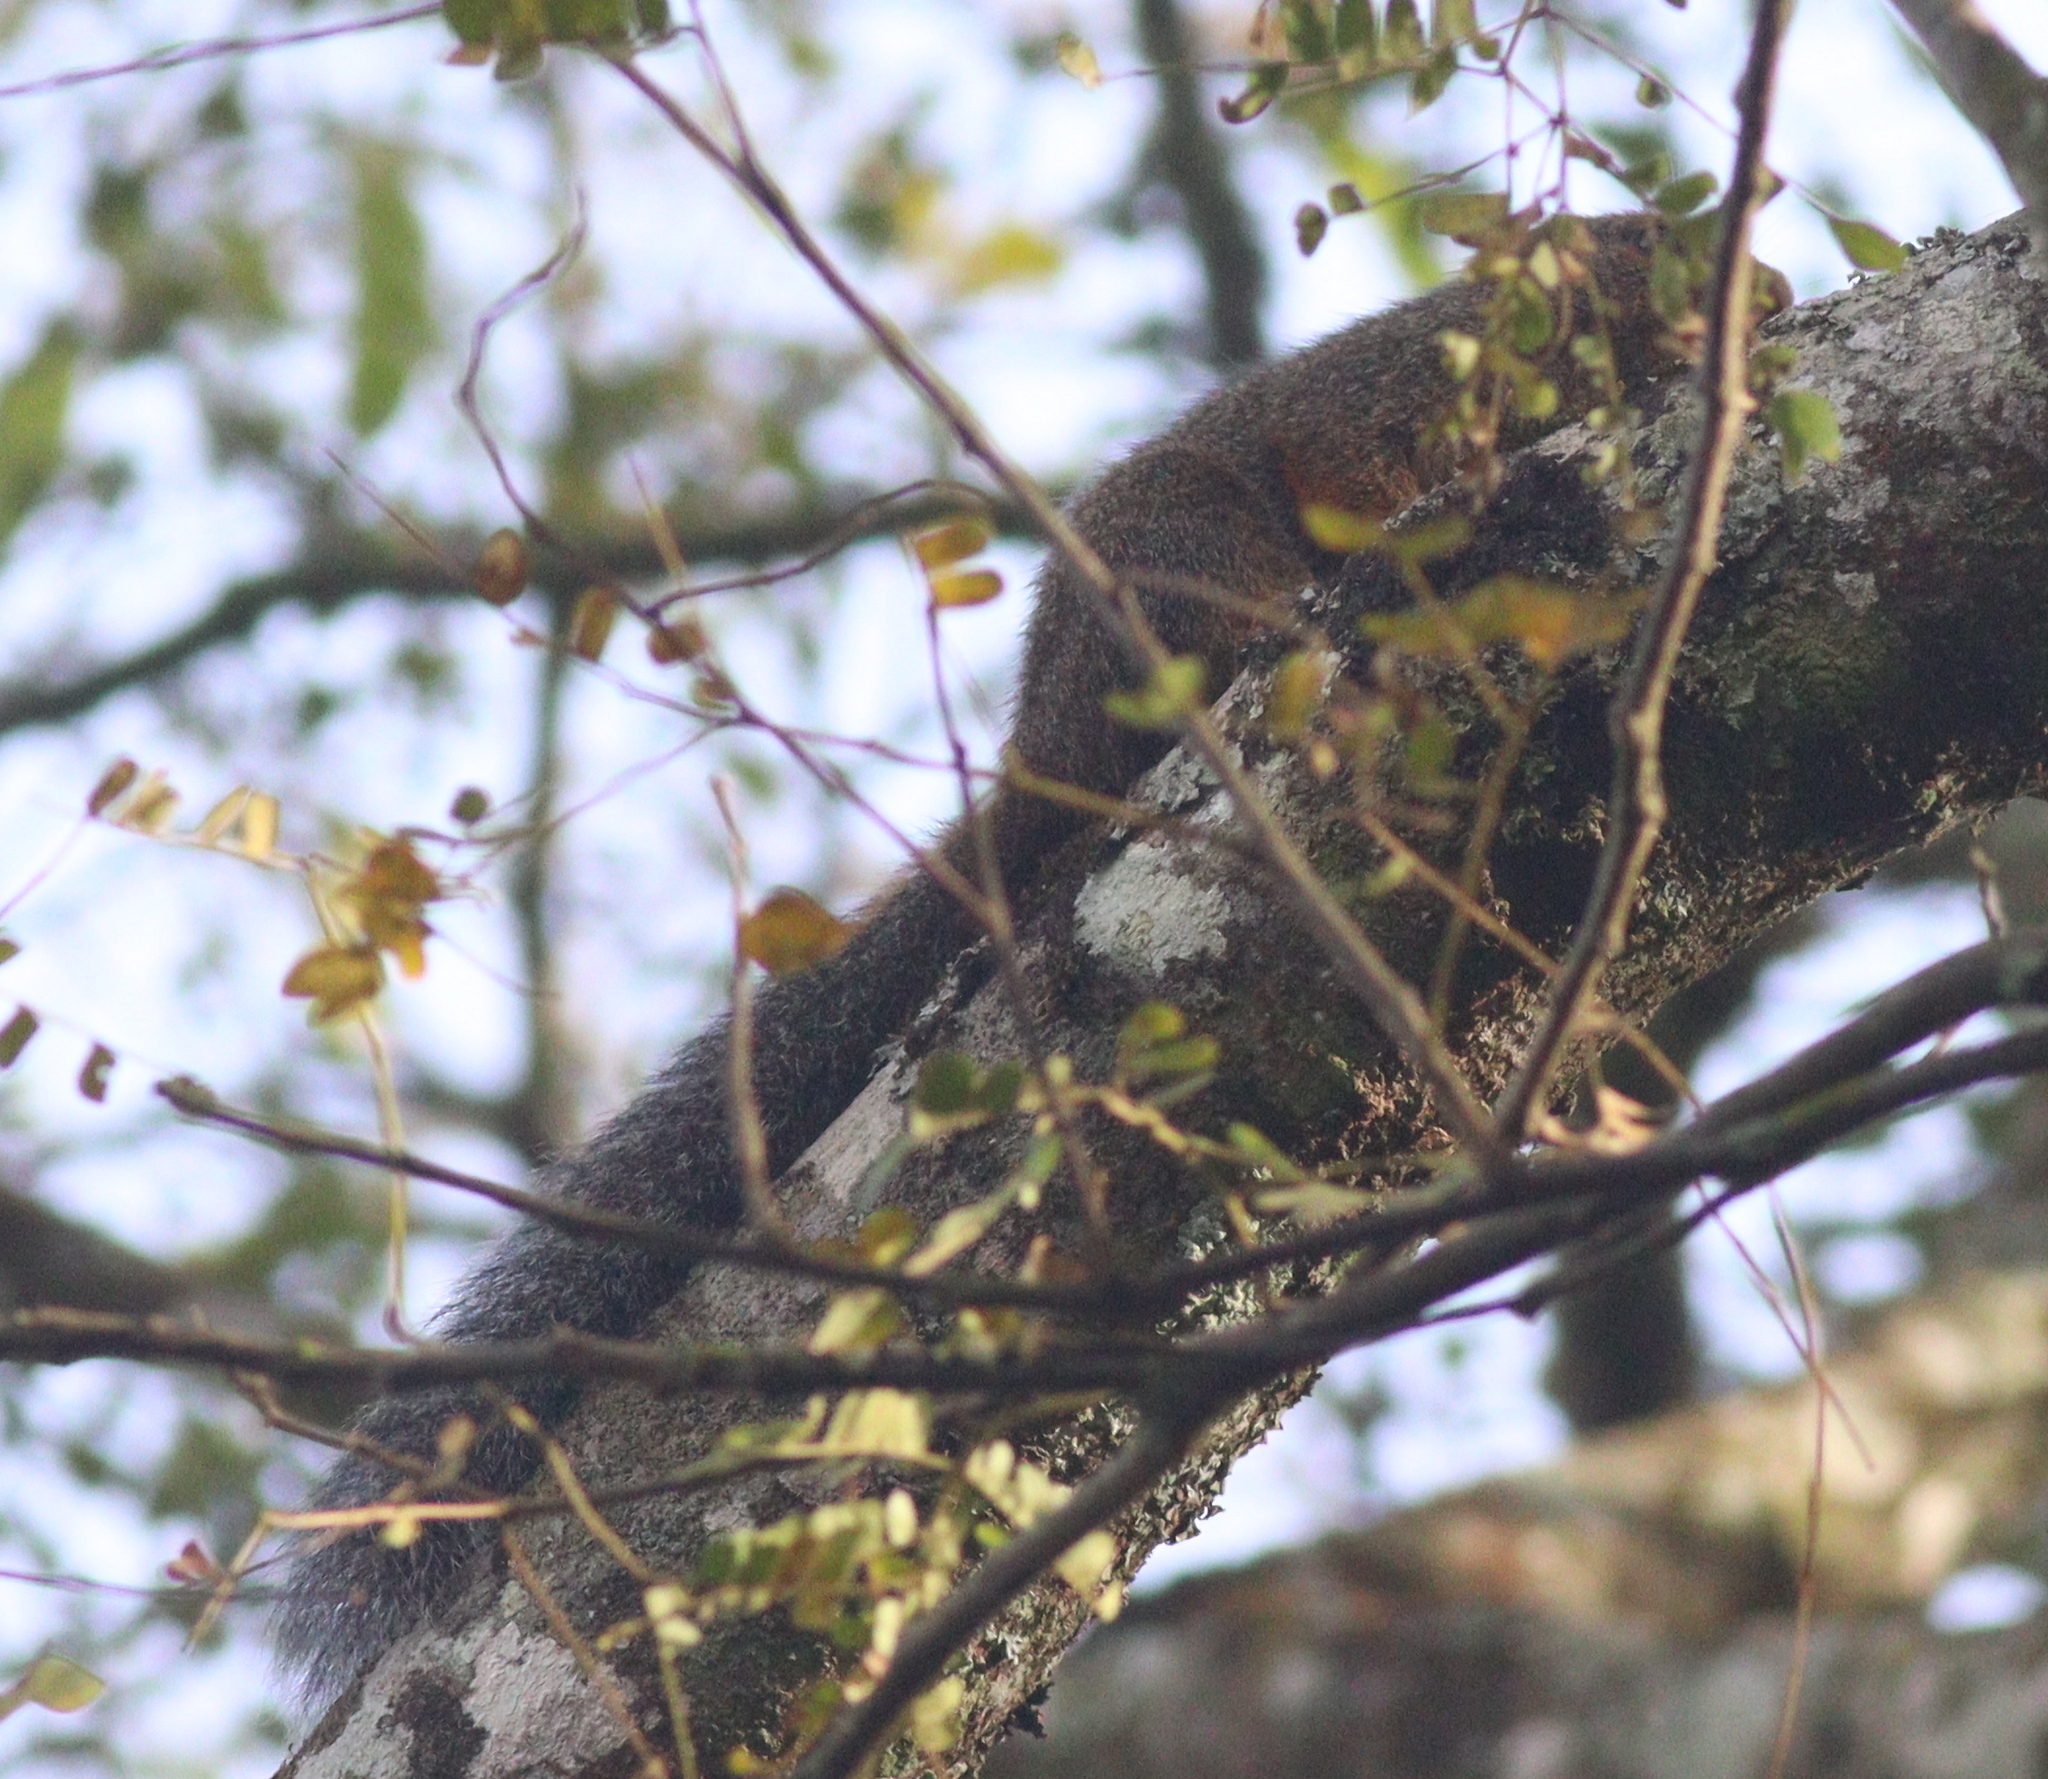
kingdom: Animalia
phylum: Chordata
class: Mammalia
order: Rodentia
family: Sciuridae
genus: Protoxerus
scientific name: Protoxerus stangeri
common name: Forest giant squirrel
